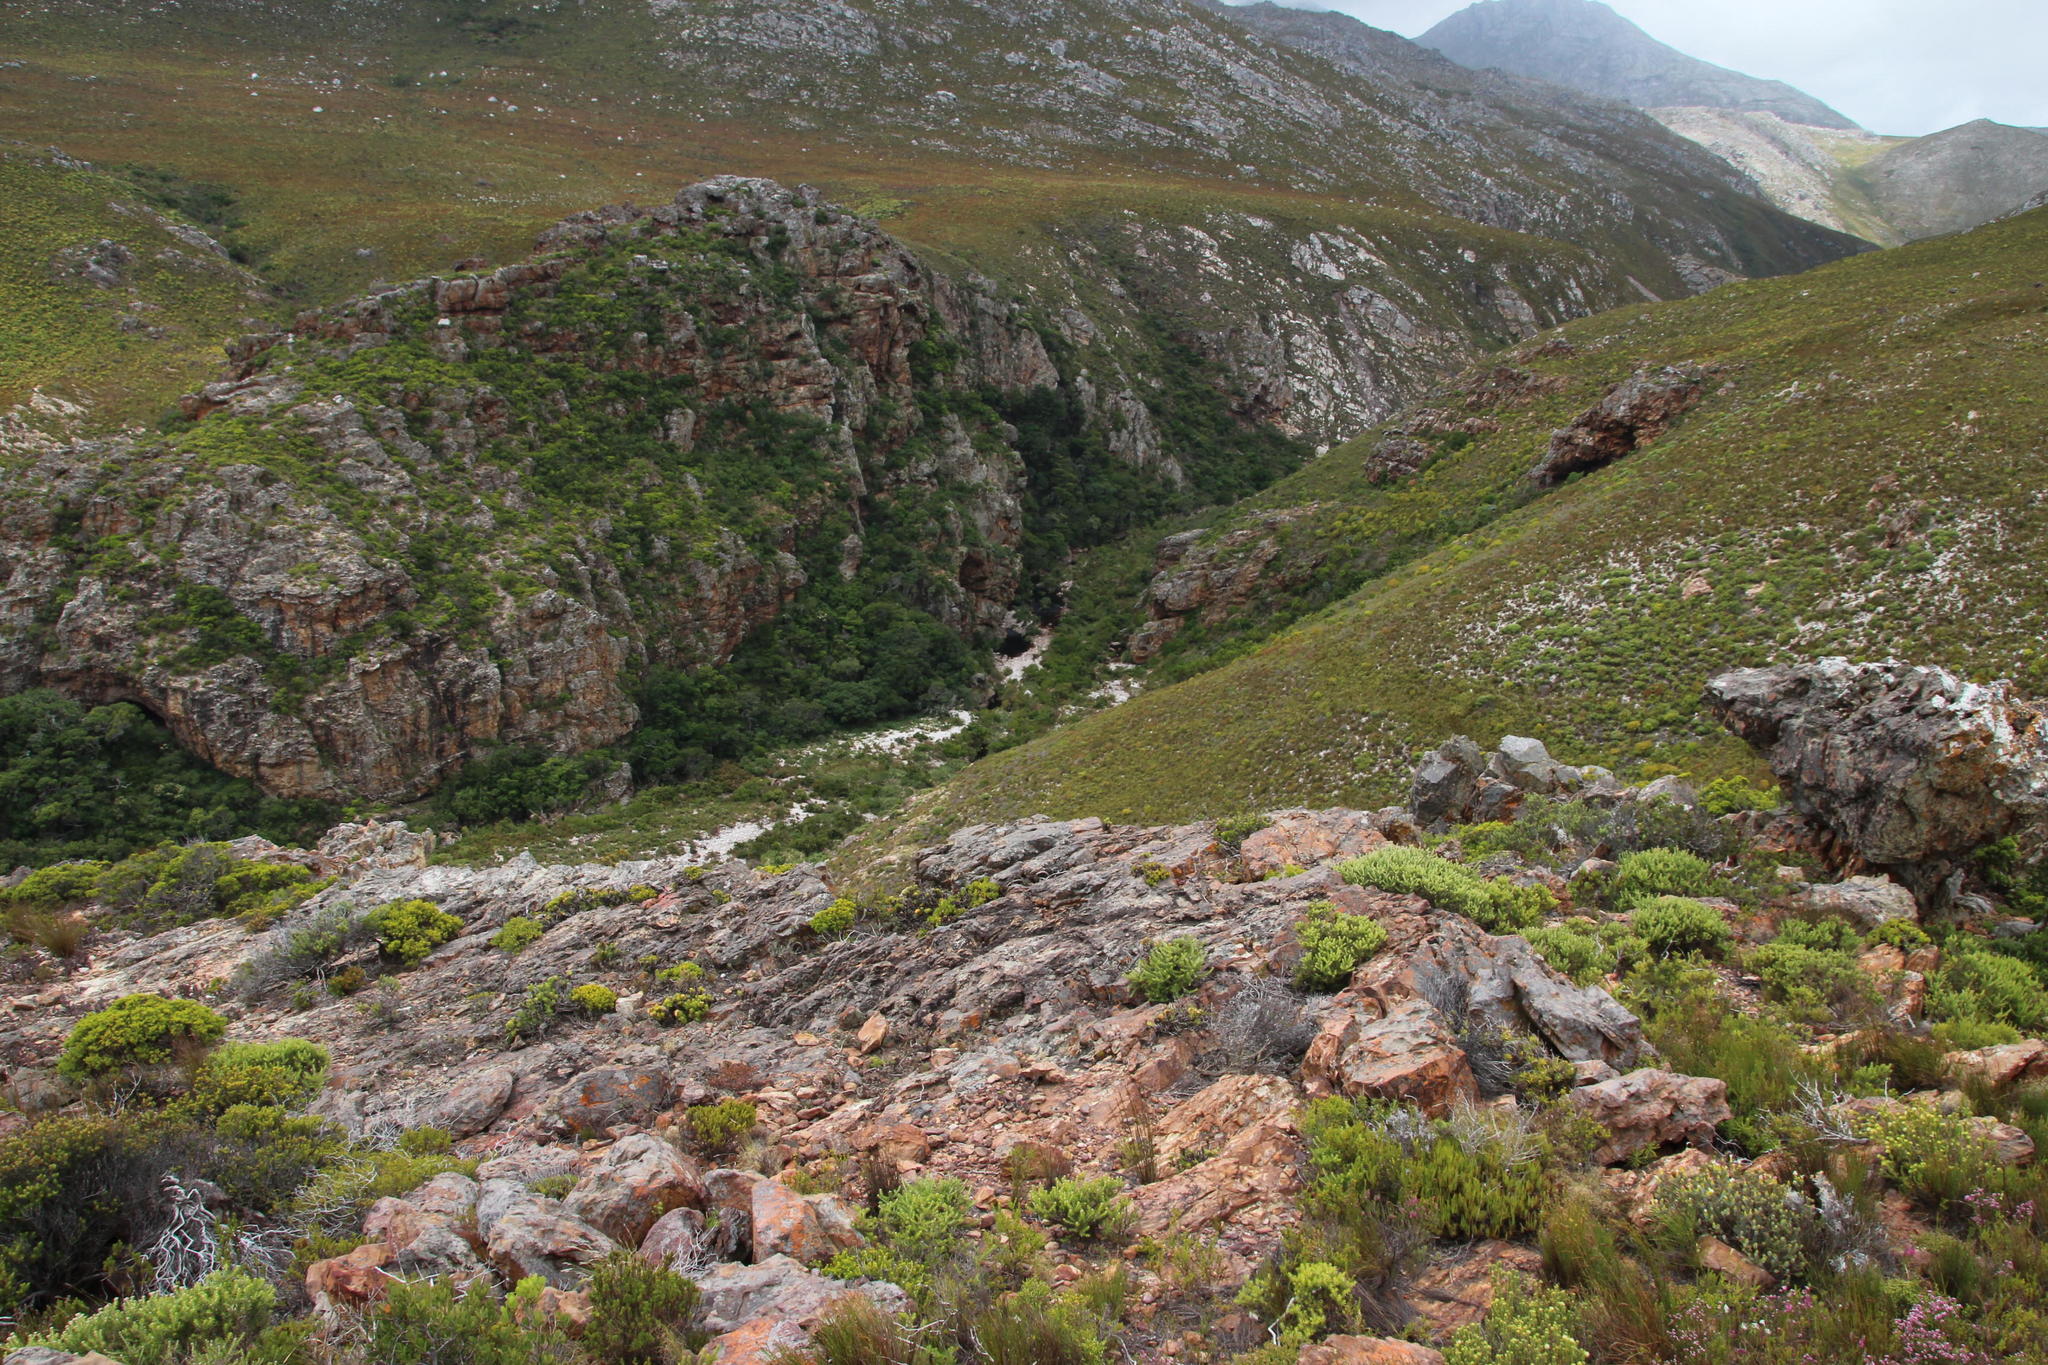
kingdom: Plantae
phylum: Tracheophyta
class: Magnoliopsida
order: Saxifragales
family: Crassulaceae
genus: Crassula
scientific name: Crassula rupestris
